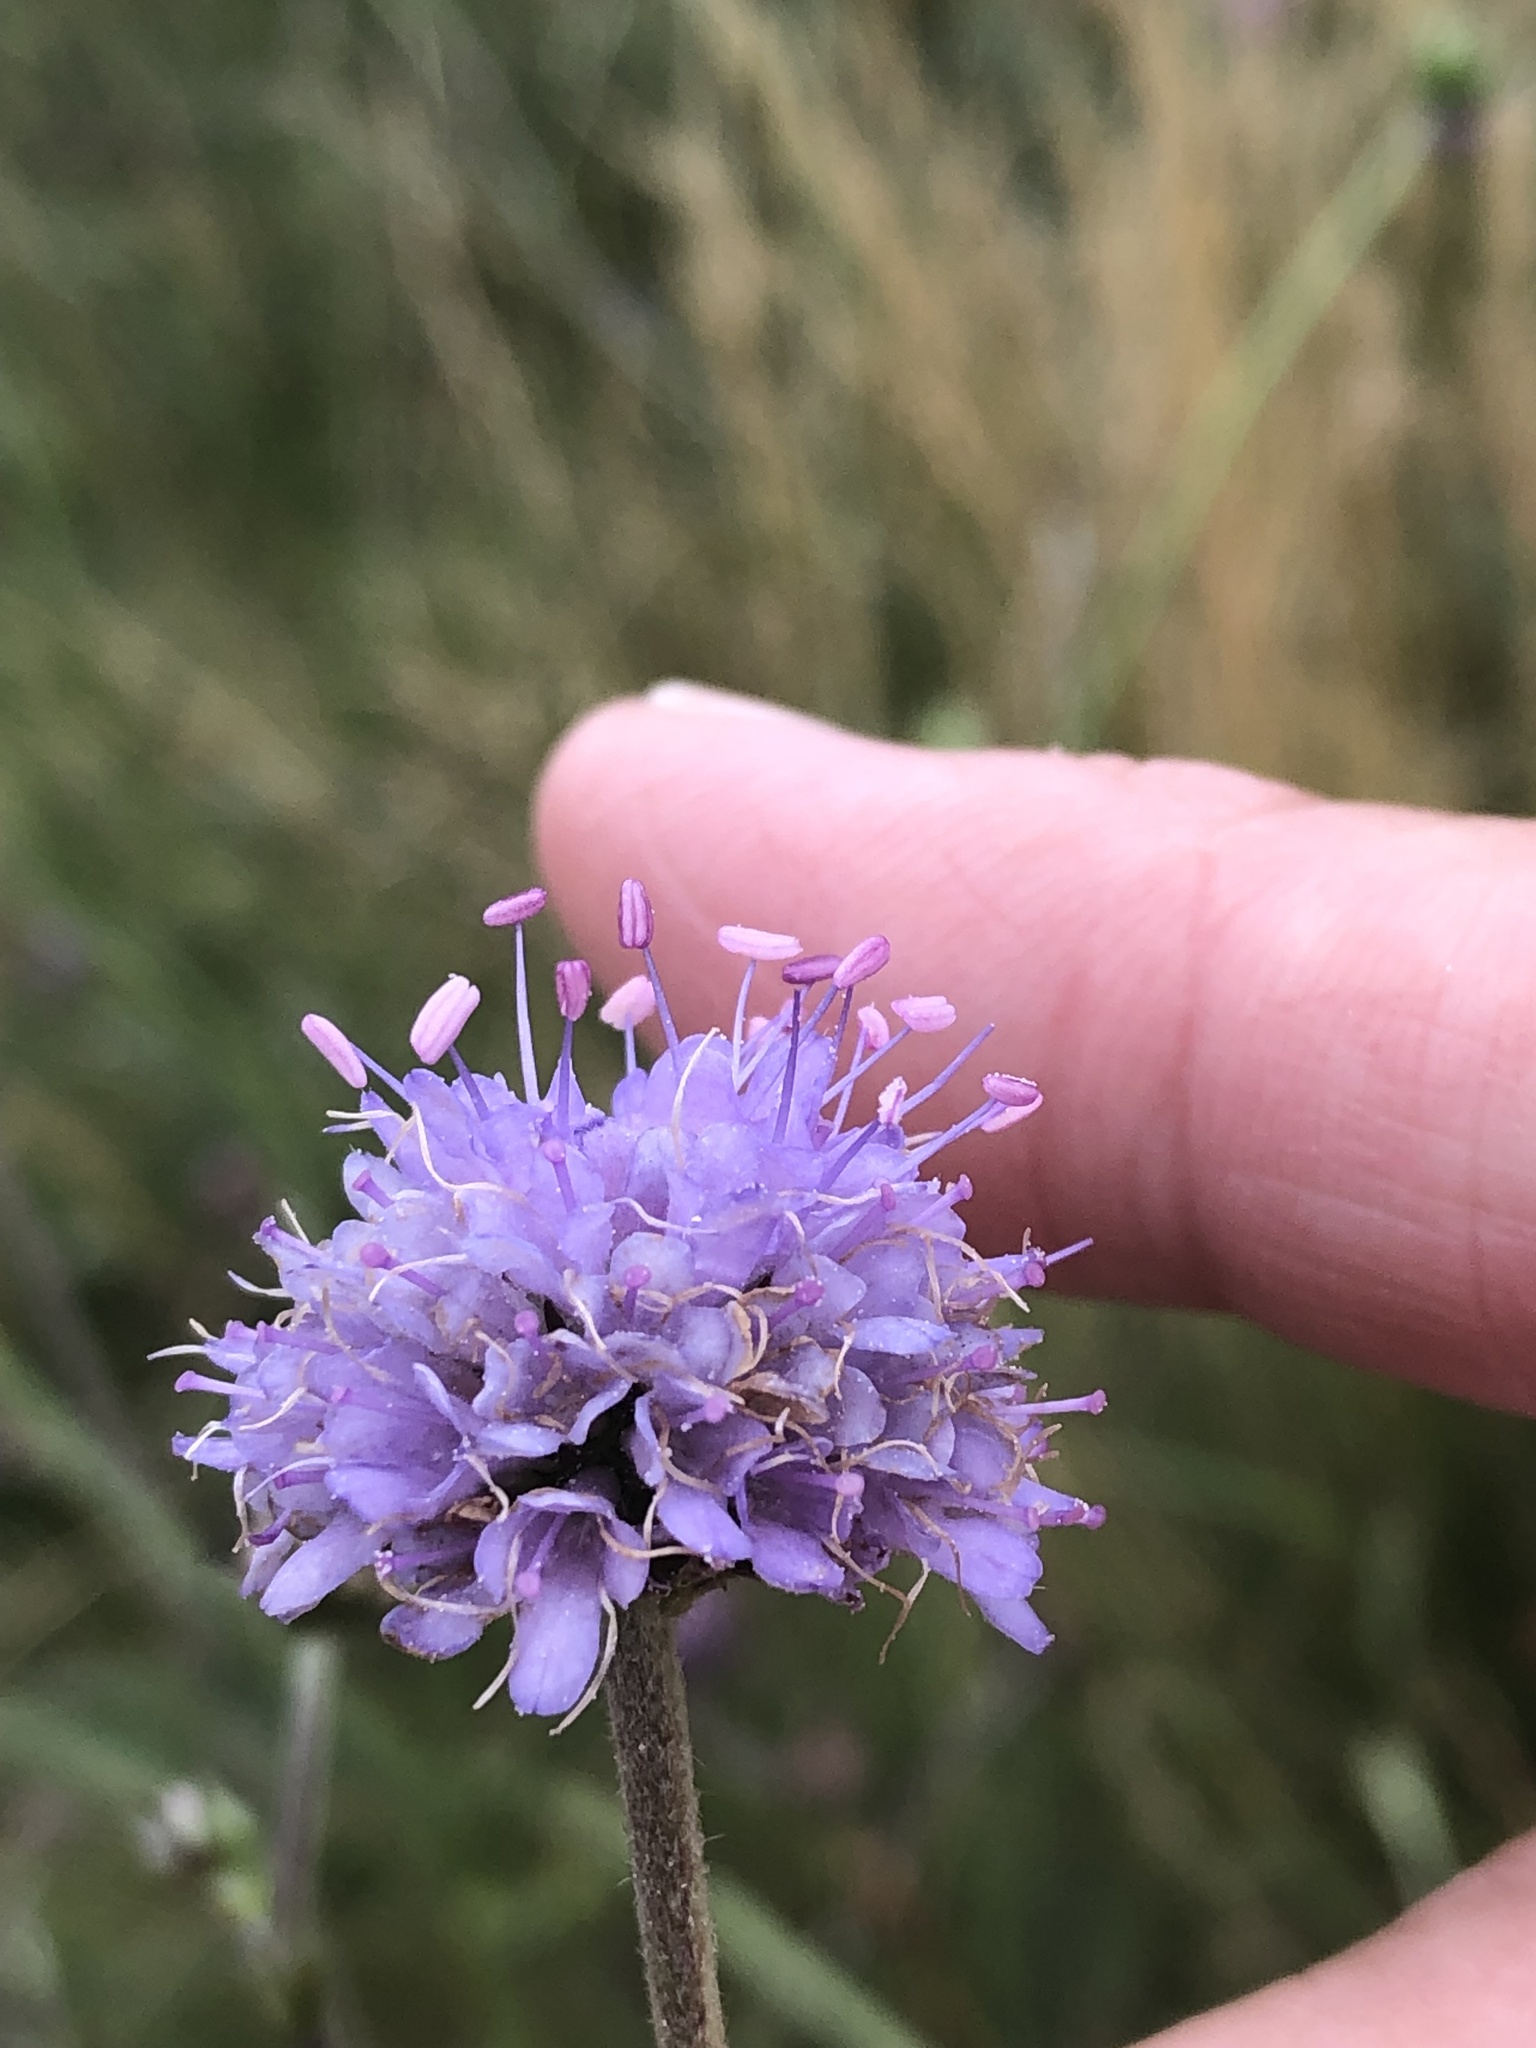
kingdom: Plantae
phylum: Tracheophyta
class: Magnoliopsida
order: Dipsacales
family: Caprifoliaceae
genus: Succisa
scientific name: Succisa pratensis
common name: Devil's-bit
